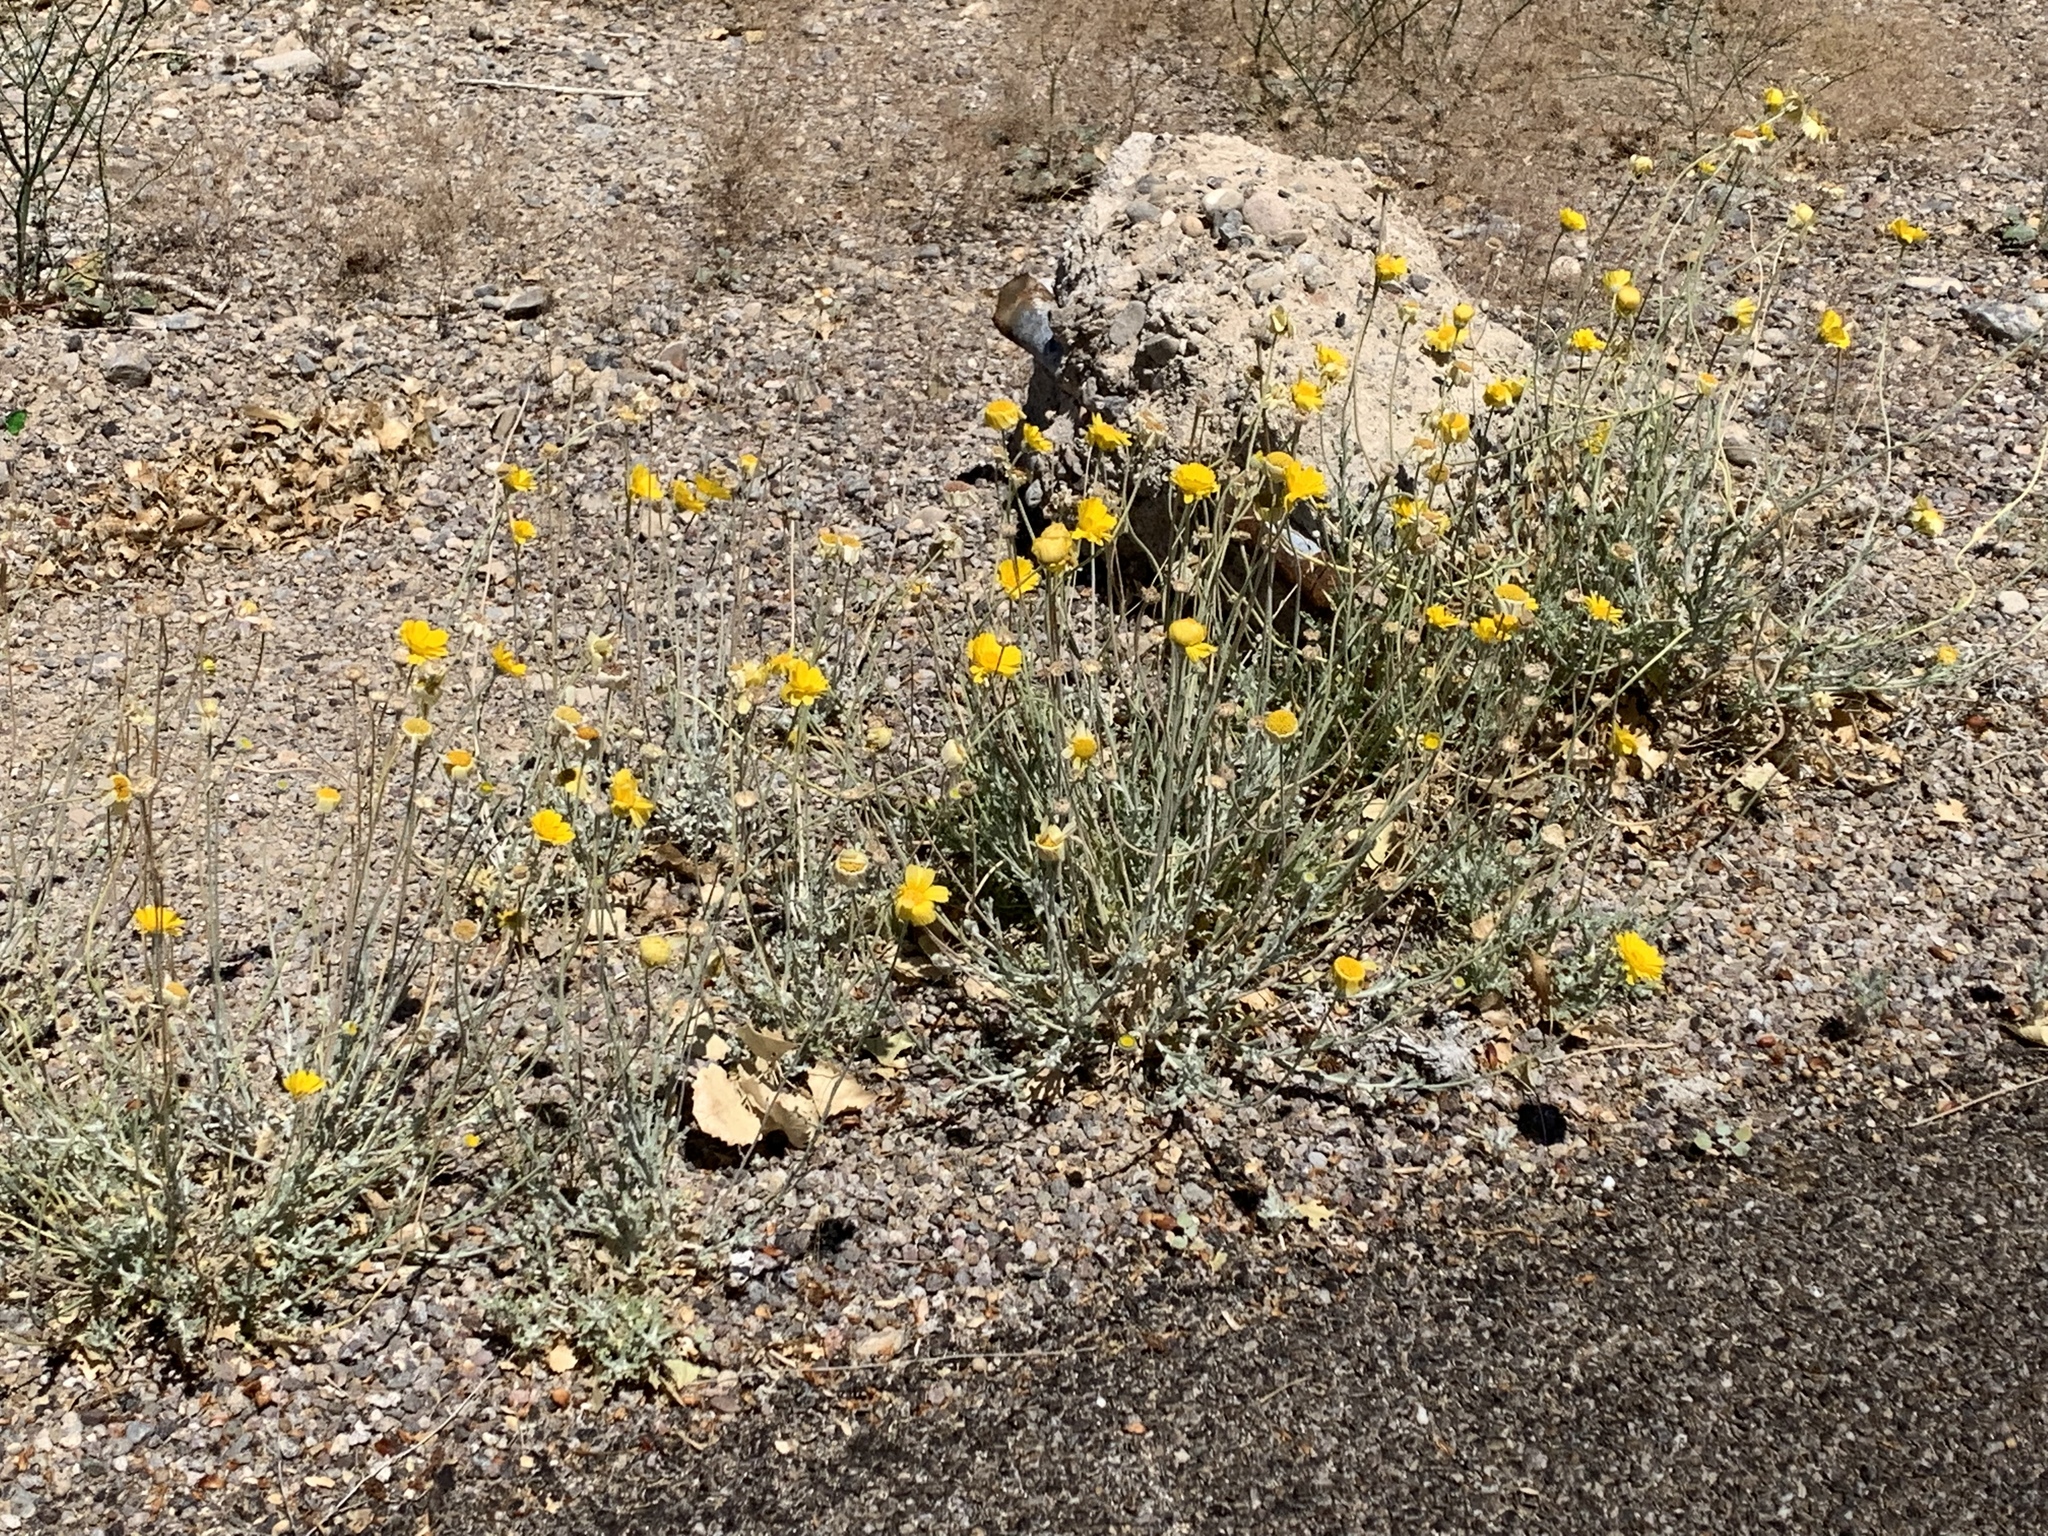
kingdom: Plantae
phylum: Tracheophyta
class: Magnoliopsida
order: Asterales
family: Asteraceae
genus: Baileya
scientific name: Baileya multiradiata
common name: Desert-marigold
